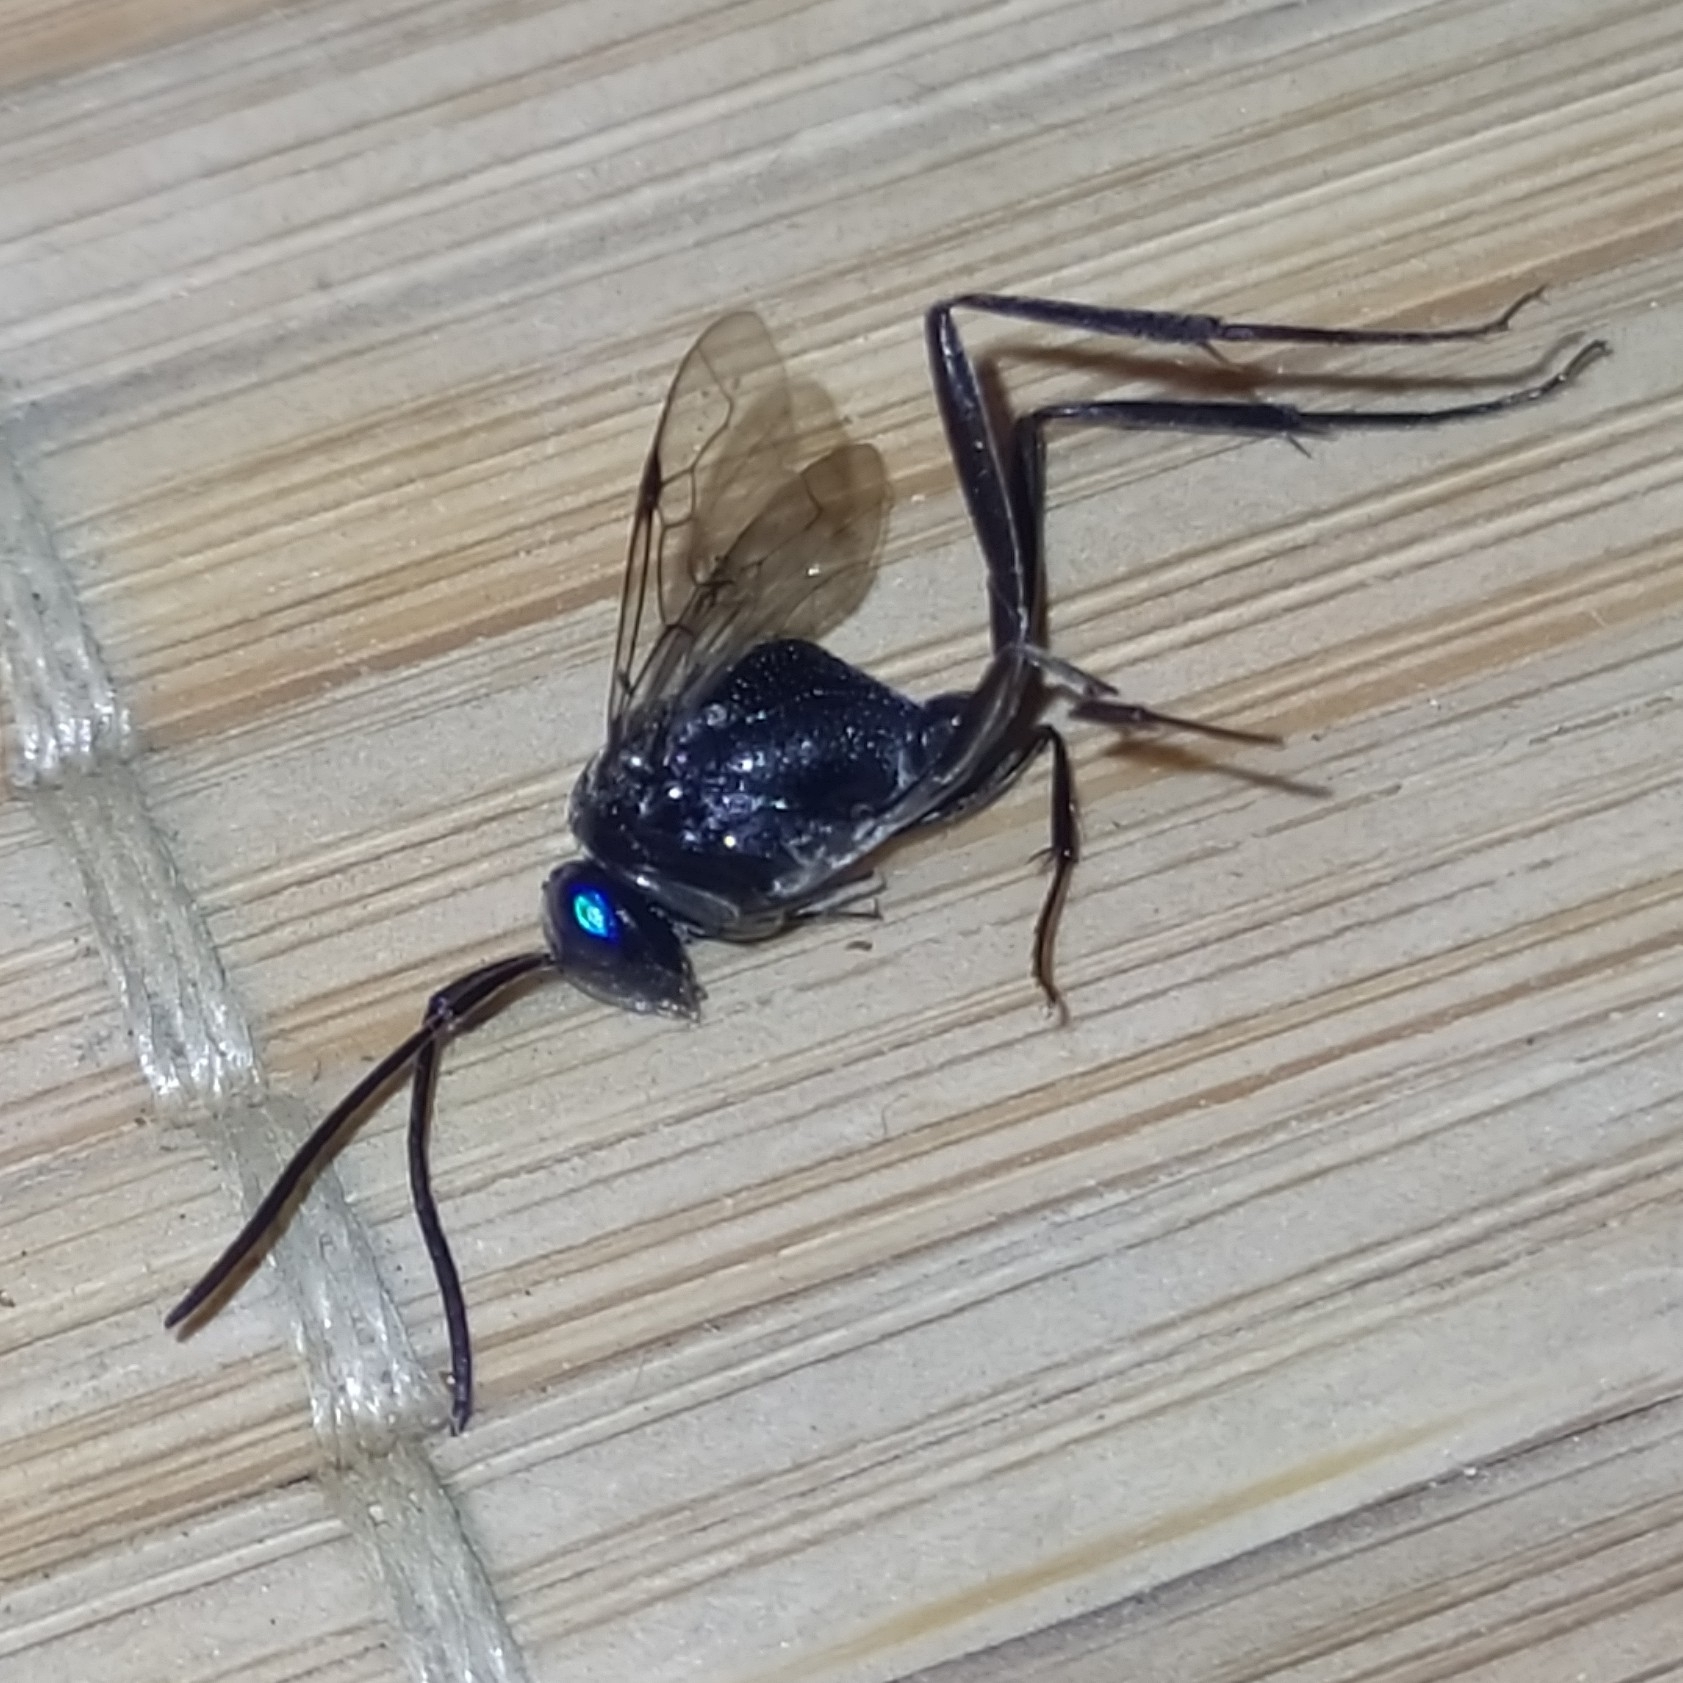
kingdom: Animalia
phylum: Arthropoda
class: Insecta
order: Hymenoptera
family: Evaniidae
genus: Evania
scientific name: Evania appendigaster
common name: Ensign wasp
